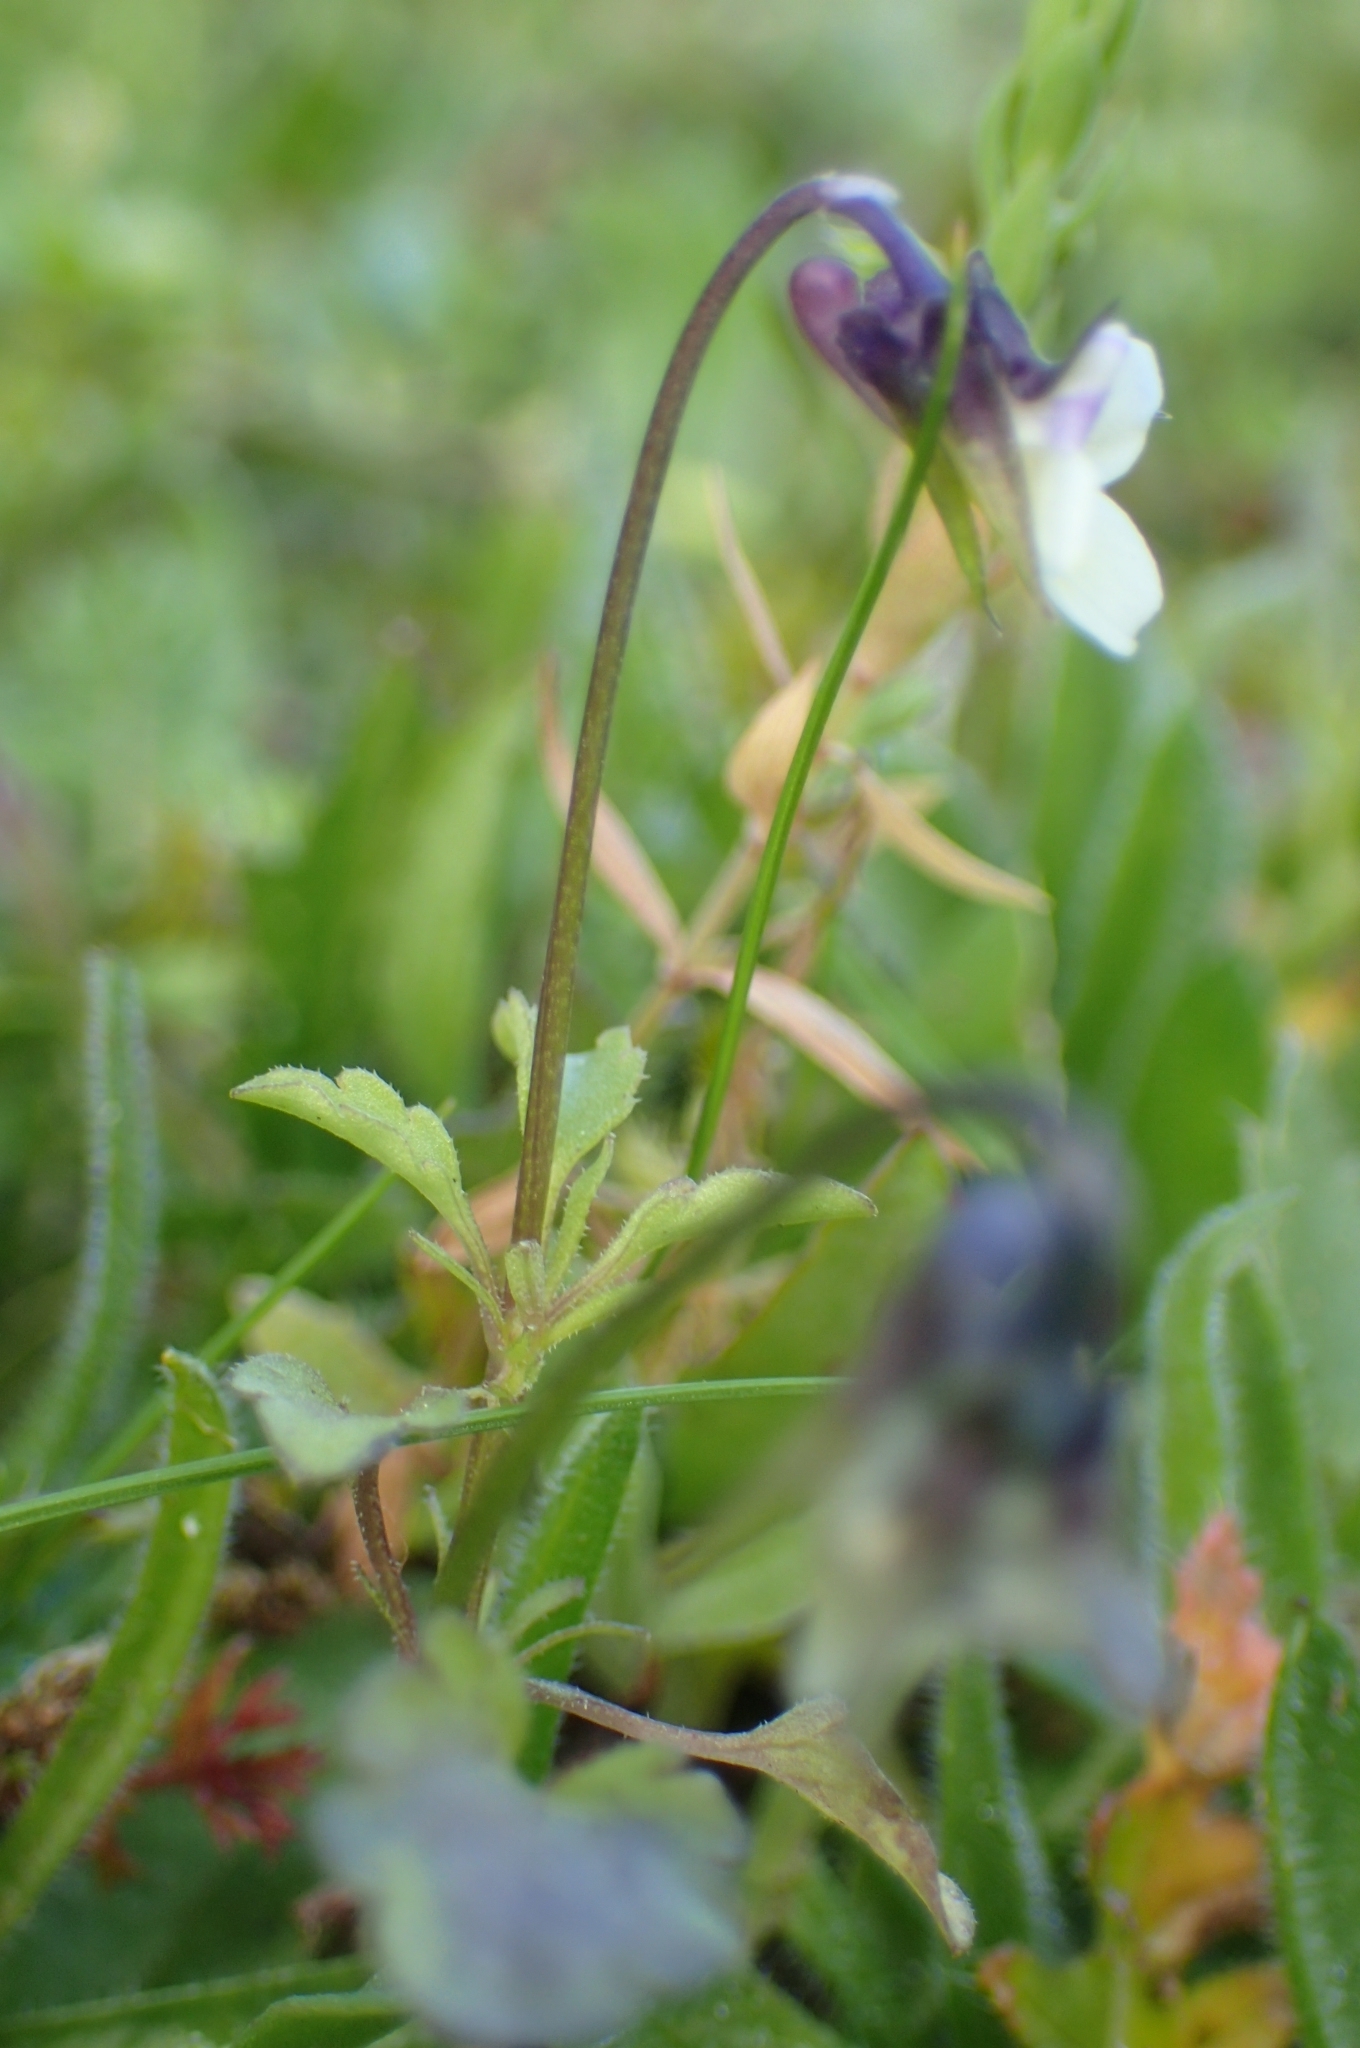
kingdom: Plantae
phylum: Tracheophyta
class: Magnoliopsida
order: Malpighiales
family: Violaceae
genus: Viola
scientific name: Viola kitaibeliana
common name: Dwarf pansy
